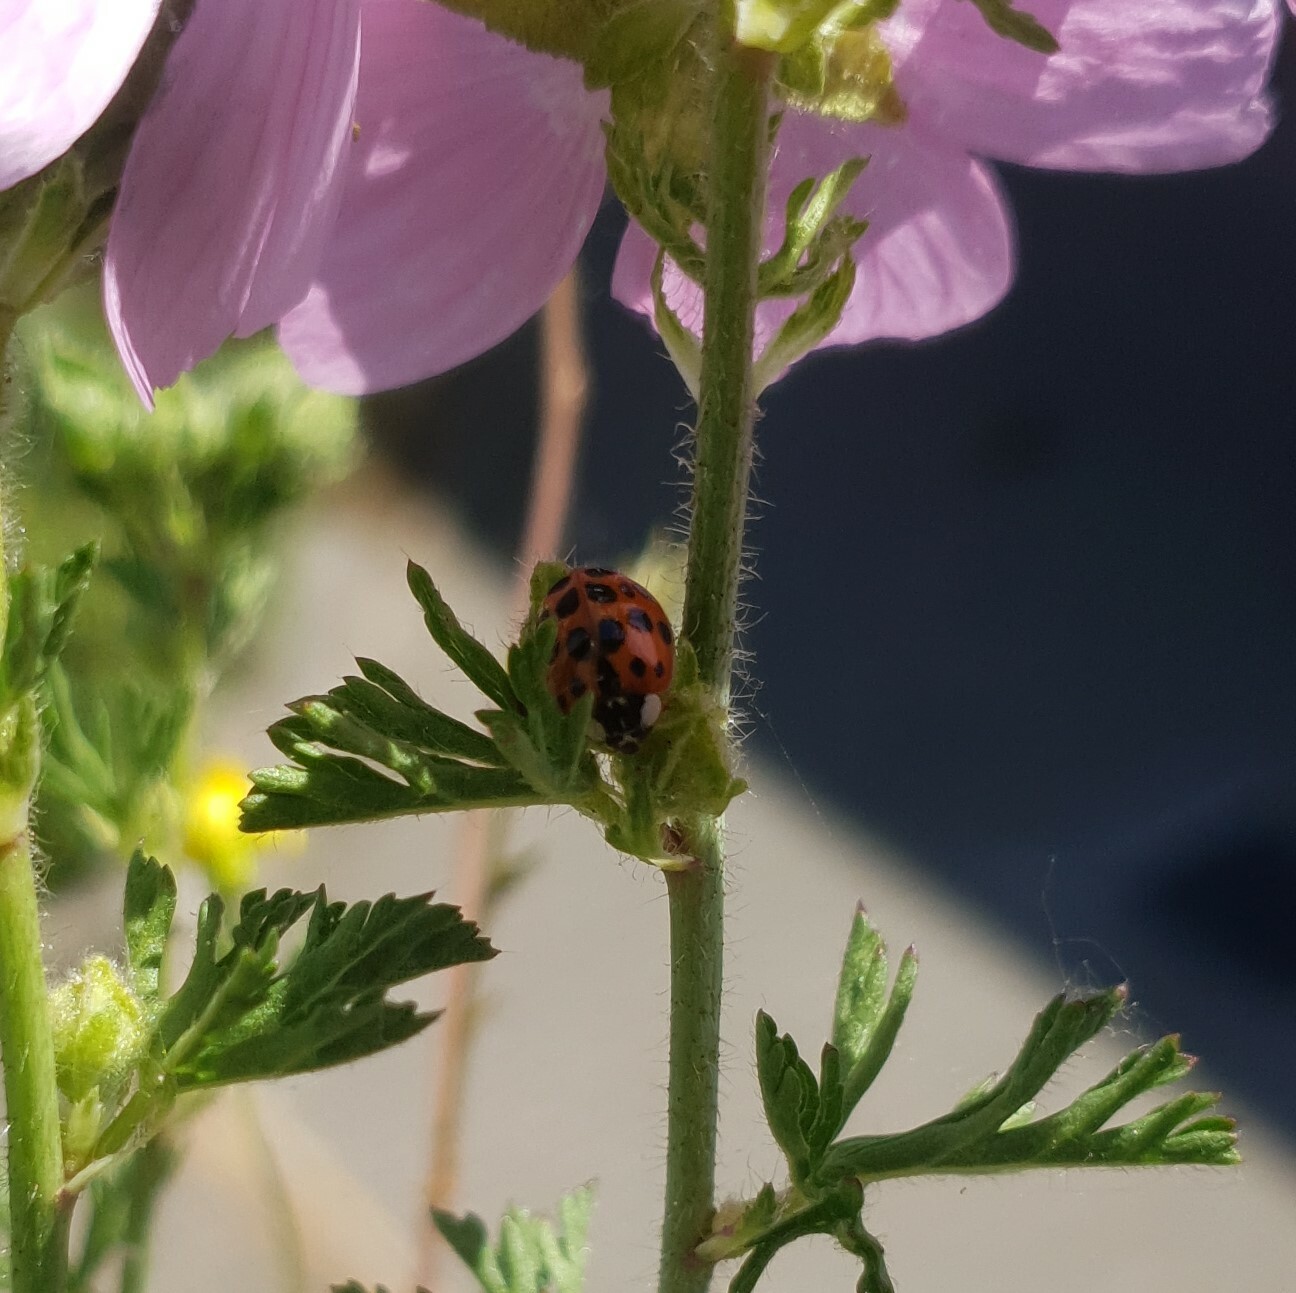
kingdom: Animalia
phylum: Arthropoda
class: Insecta
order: Coleoptera
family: Coccinellidae
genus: Harmonia
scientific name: Harmonia axyridis
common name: Harlequin ladybird
